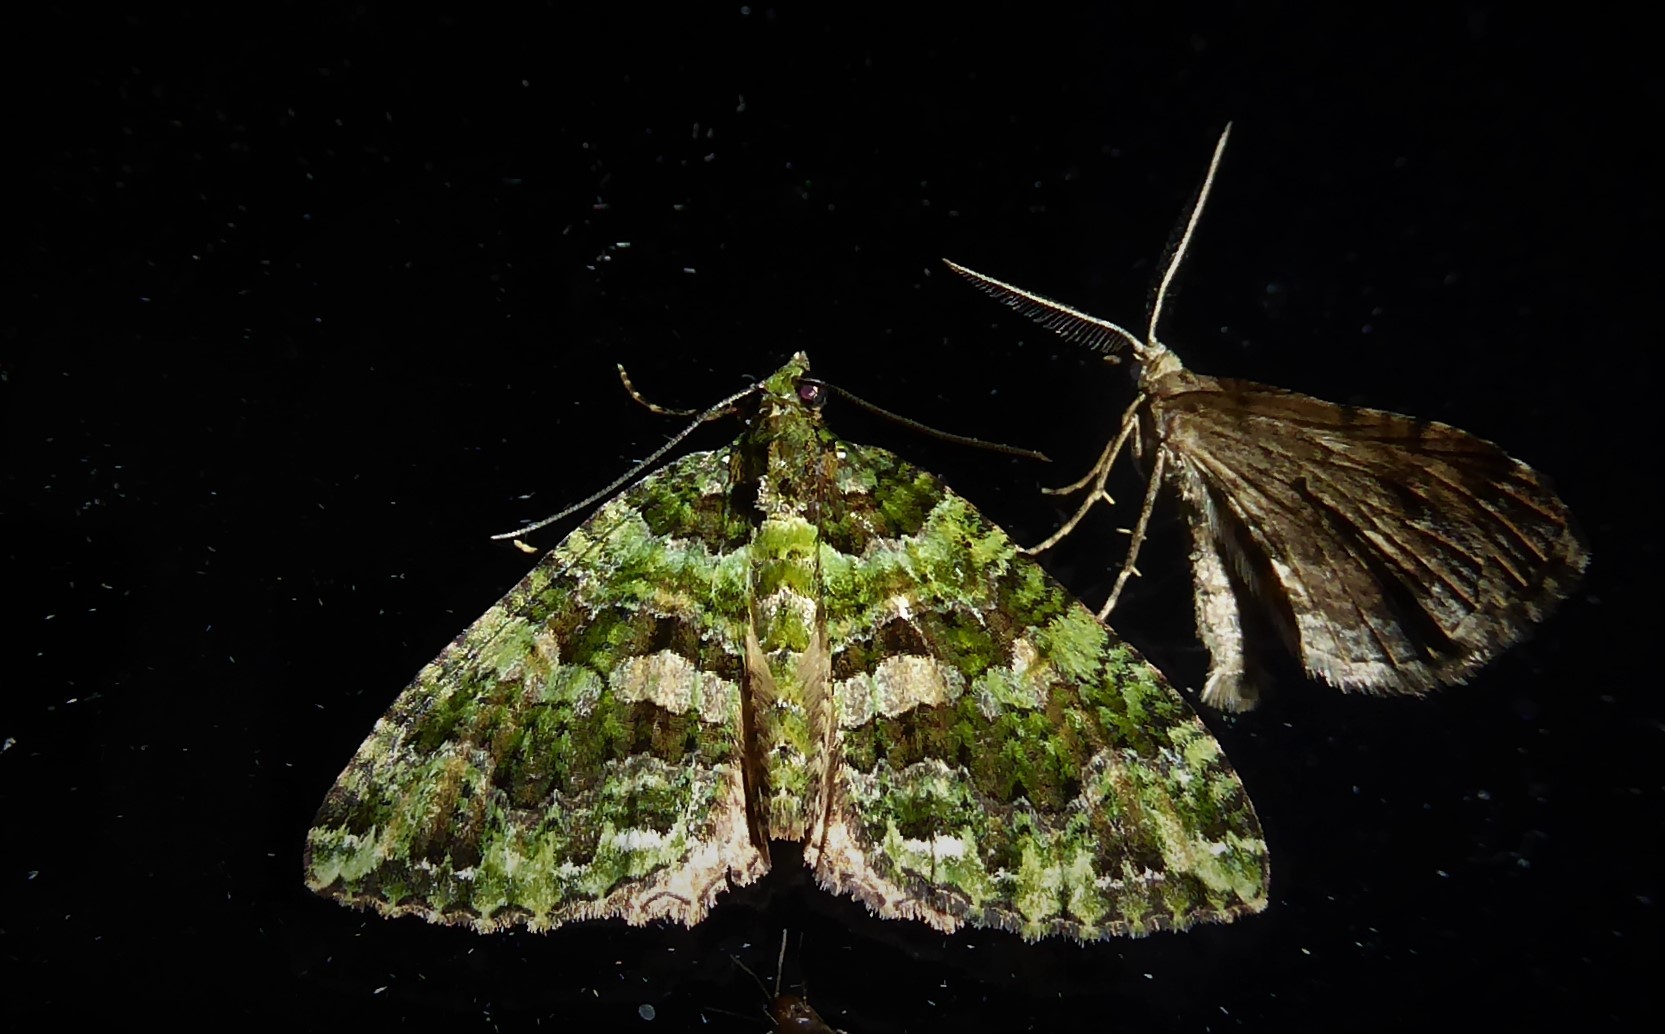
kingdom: Animalia
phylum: Arthropoda
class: Insecta
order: Lepidoptera
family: Geometridae
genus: Austrocidaria
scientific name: Austrocidaria similata
